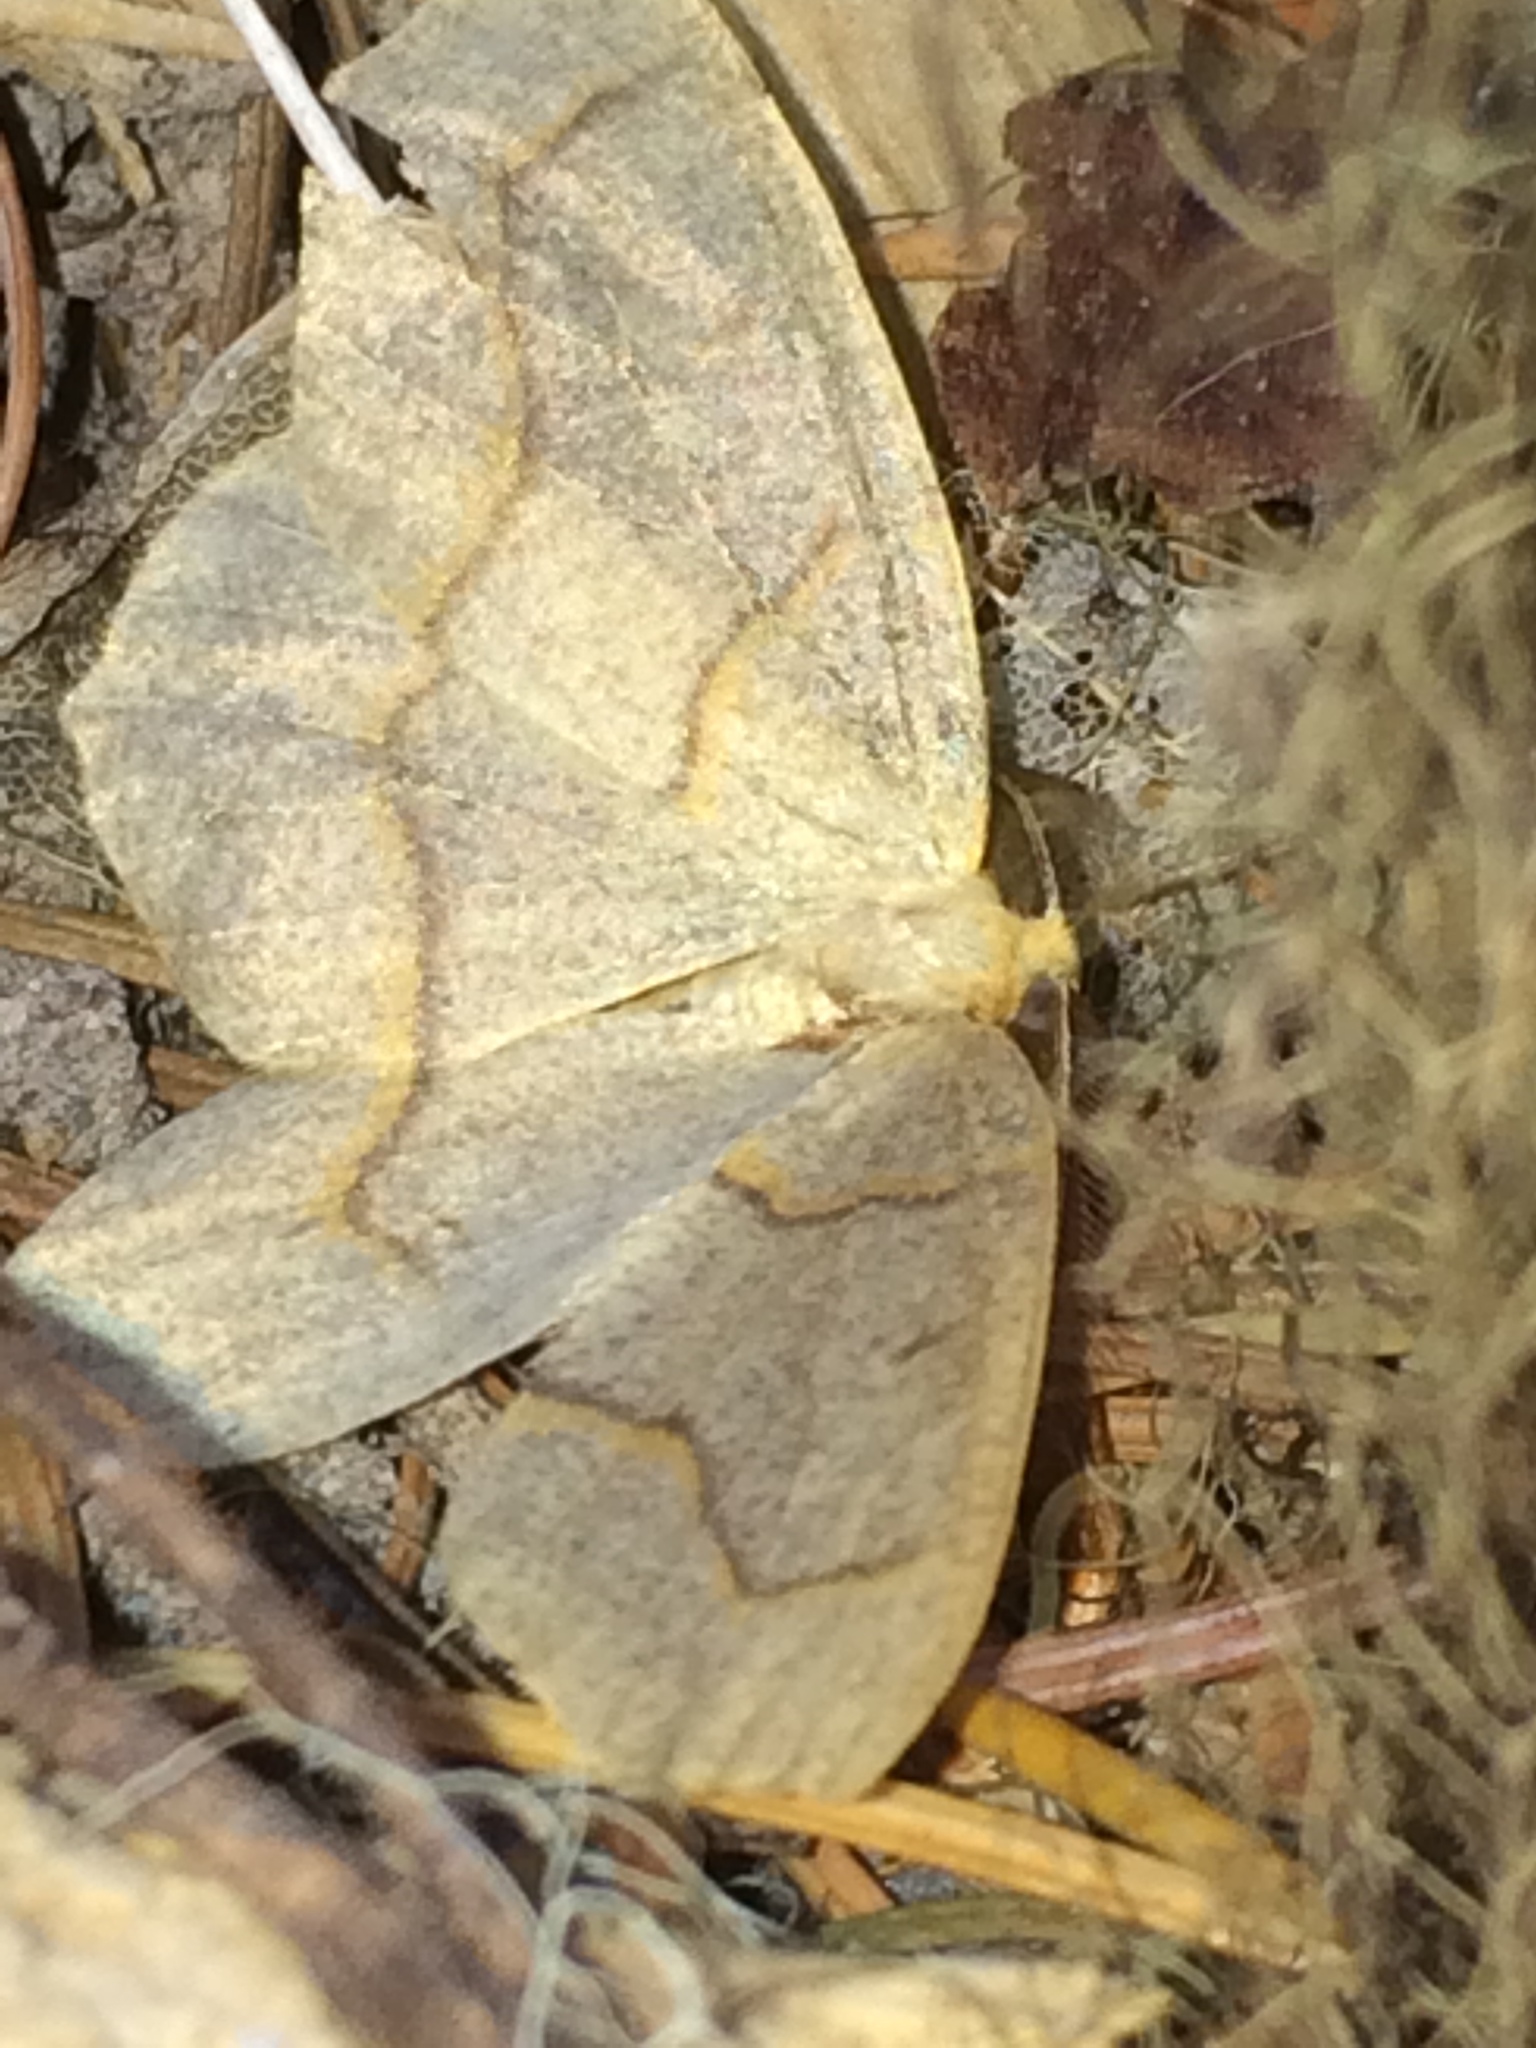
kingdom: Animalia
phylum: Arthropoda
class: Insecta
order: Lepidoptera
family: Geometridae
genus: Lambdina
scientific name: Lambdina fiscellaria
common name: Hemlock looper
